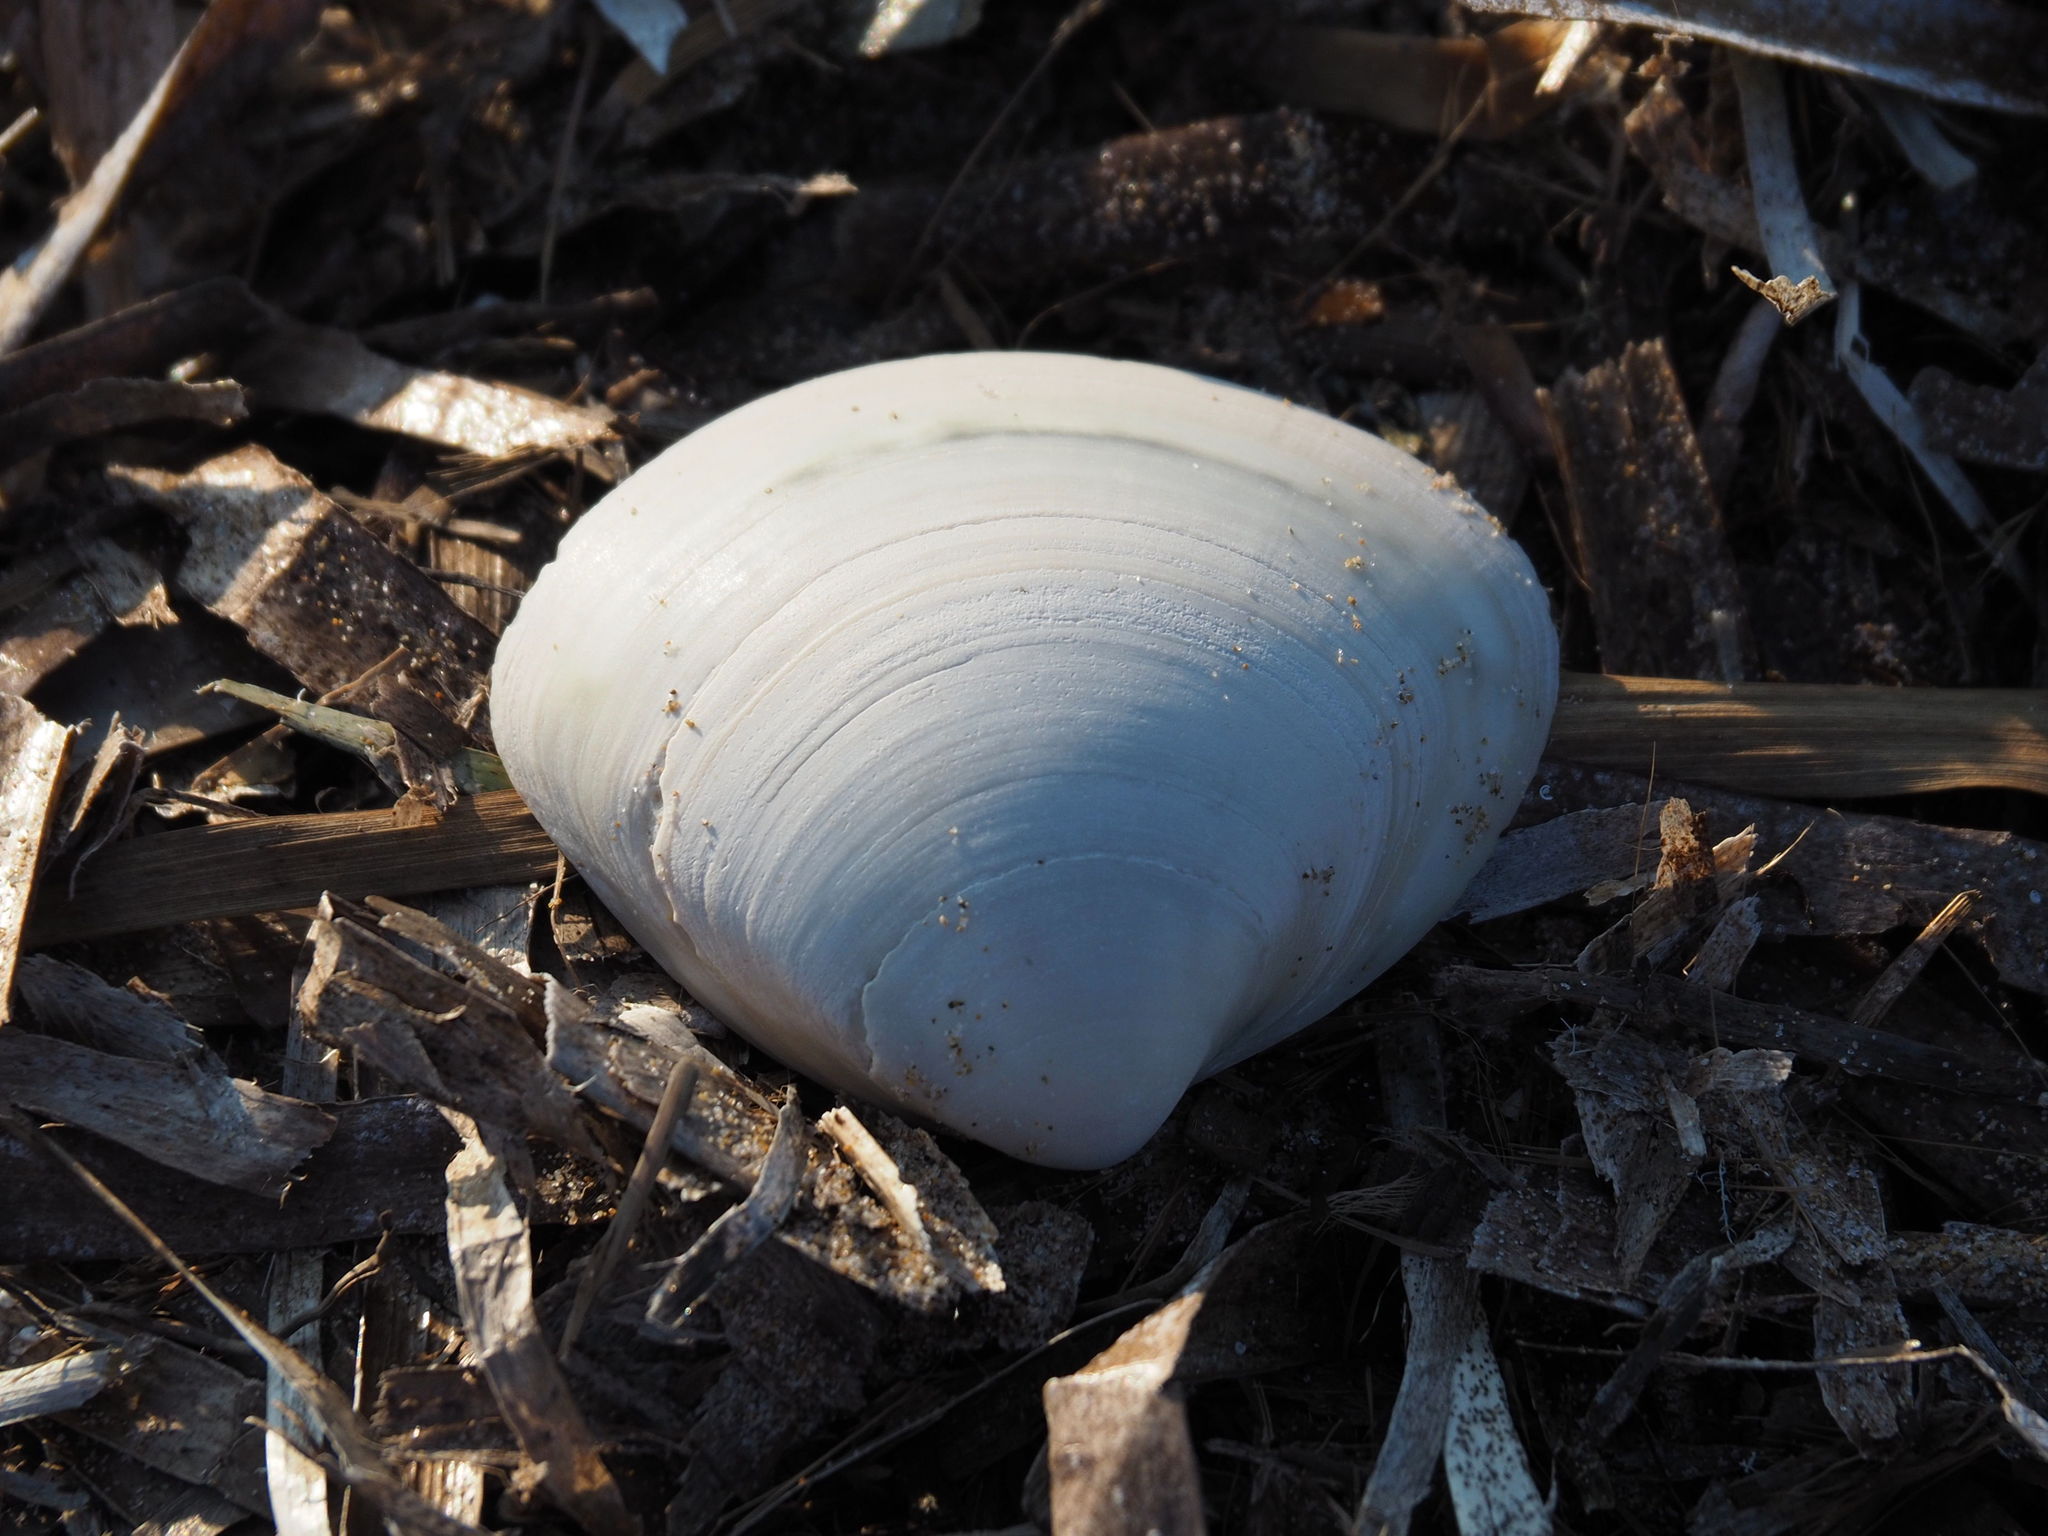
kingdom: Animalia
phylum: Mollusca
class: Bivalvia
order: Venerida
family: Mactridae
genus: Mactra
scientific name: Mactra stultorum
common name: Rayed trough shell
